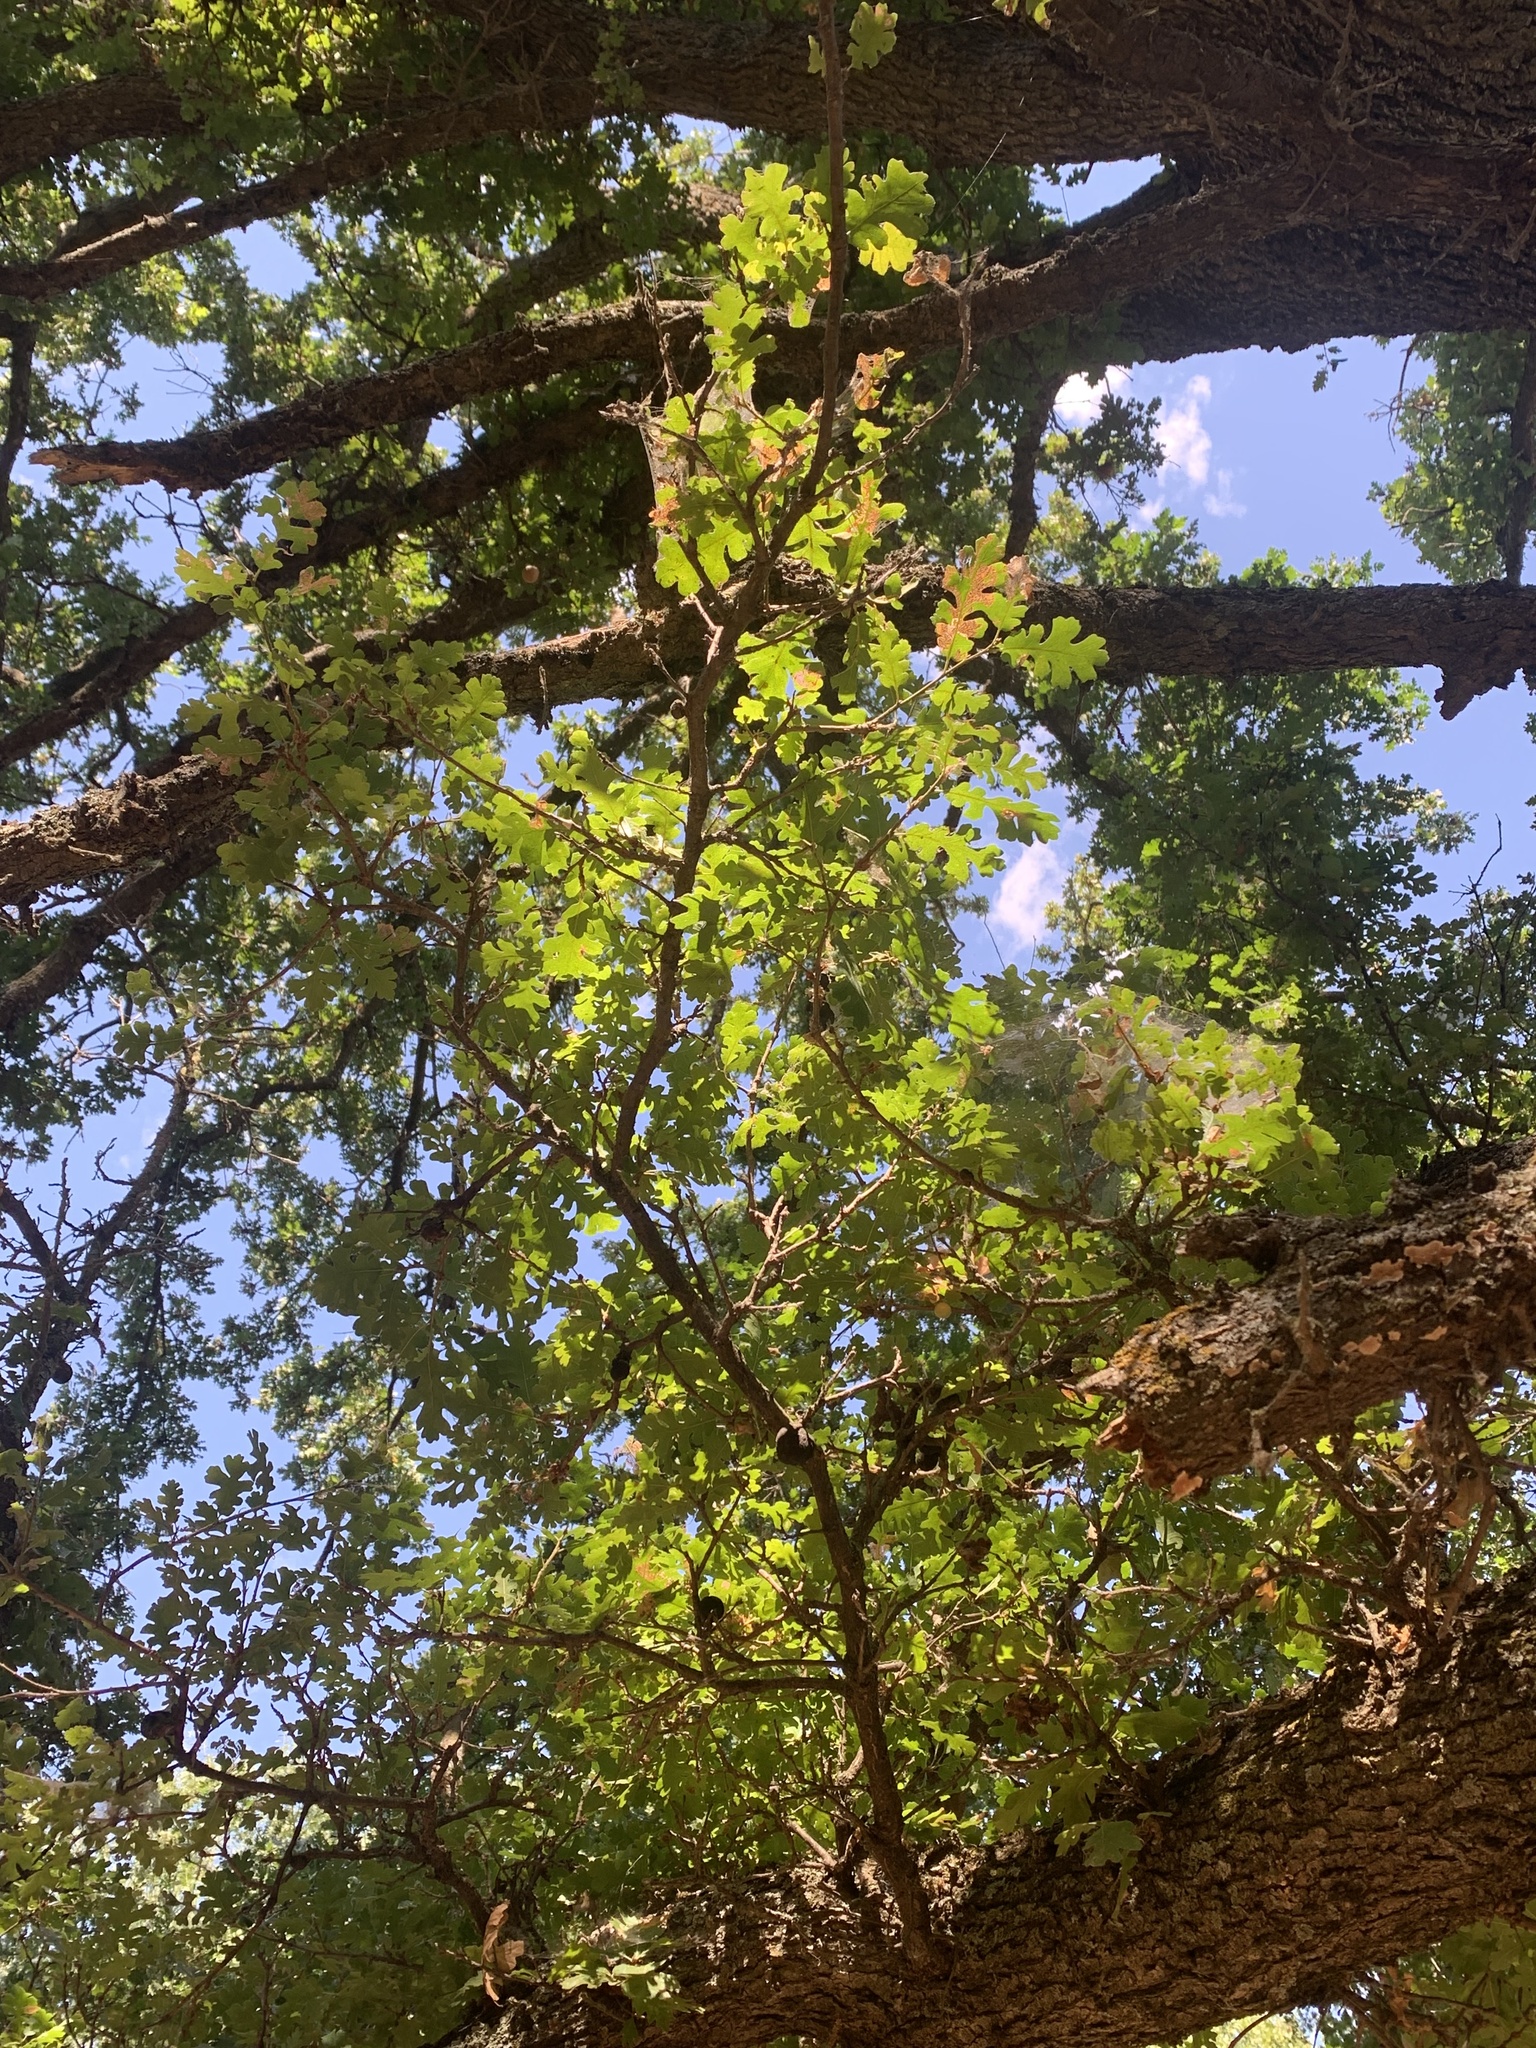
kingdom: Plantae
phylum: Tracheophyta
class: Magnoliopsida
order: Fagales
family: Fagaceae
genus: Quercus
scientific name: Quercus lobata
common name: Valley oak
